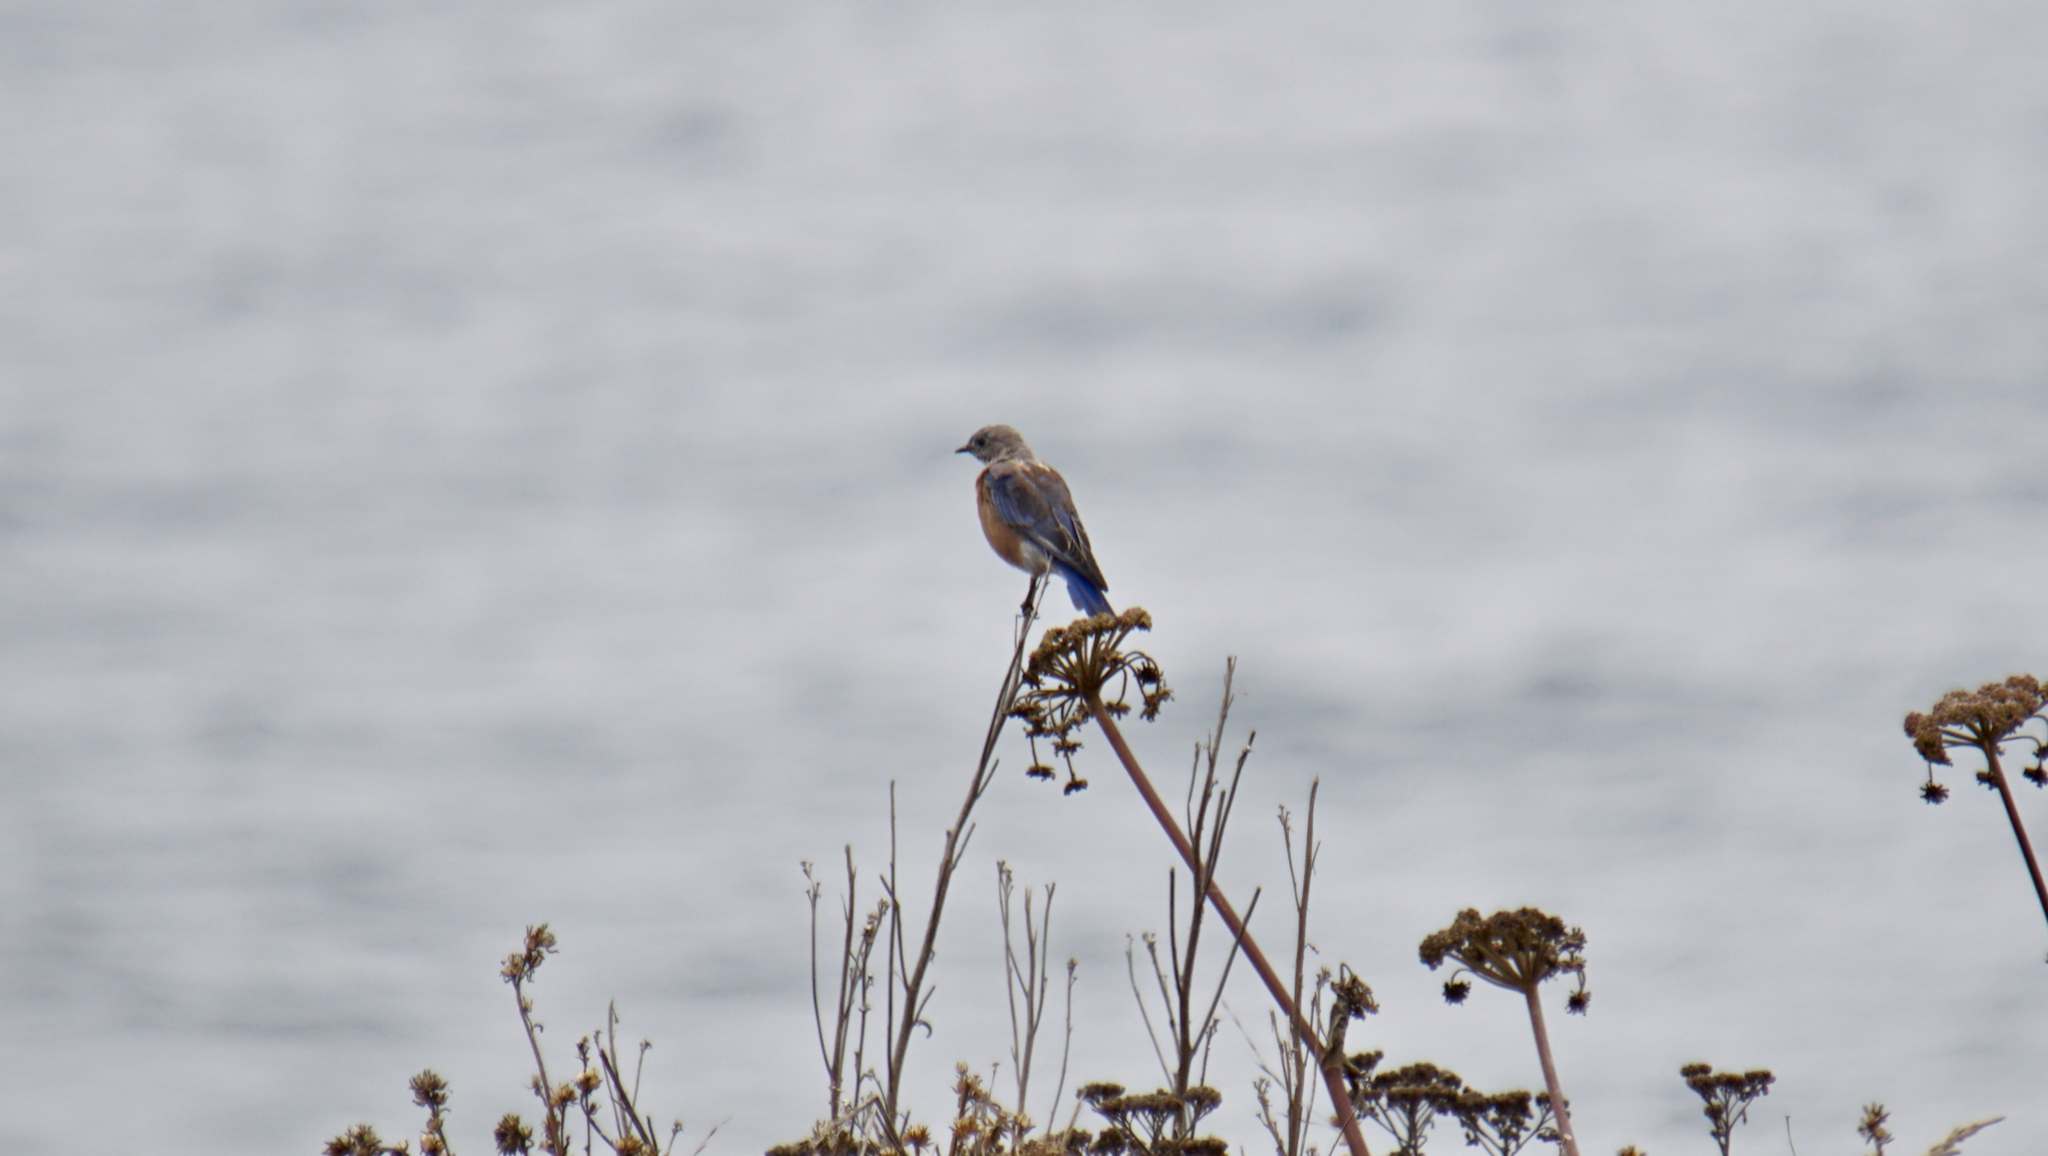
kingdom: Animalia
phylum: Chordata
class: Aves
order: Passeriformes
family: Turdidae
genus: Sialia
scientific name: Sialia mexicana
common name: Western bluebird
